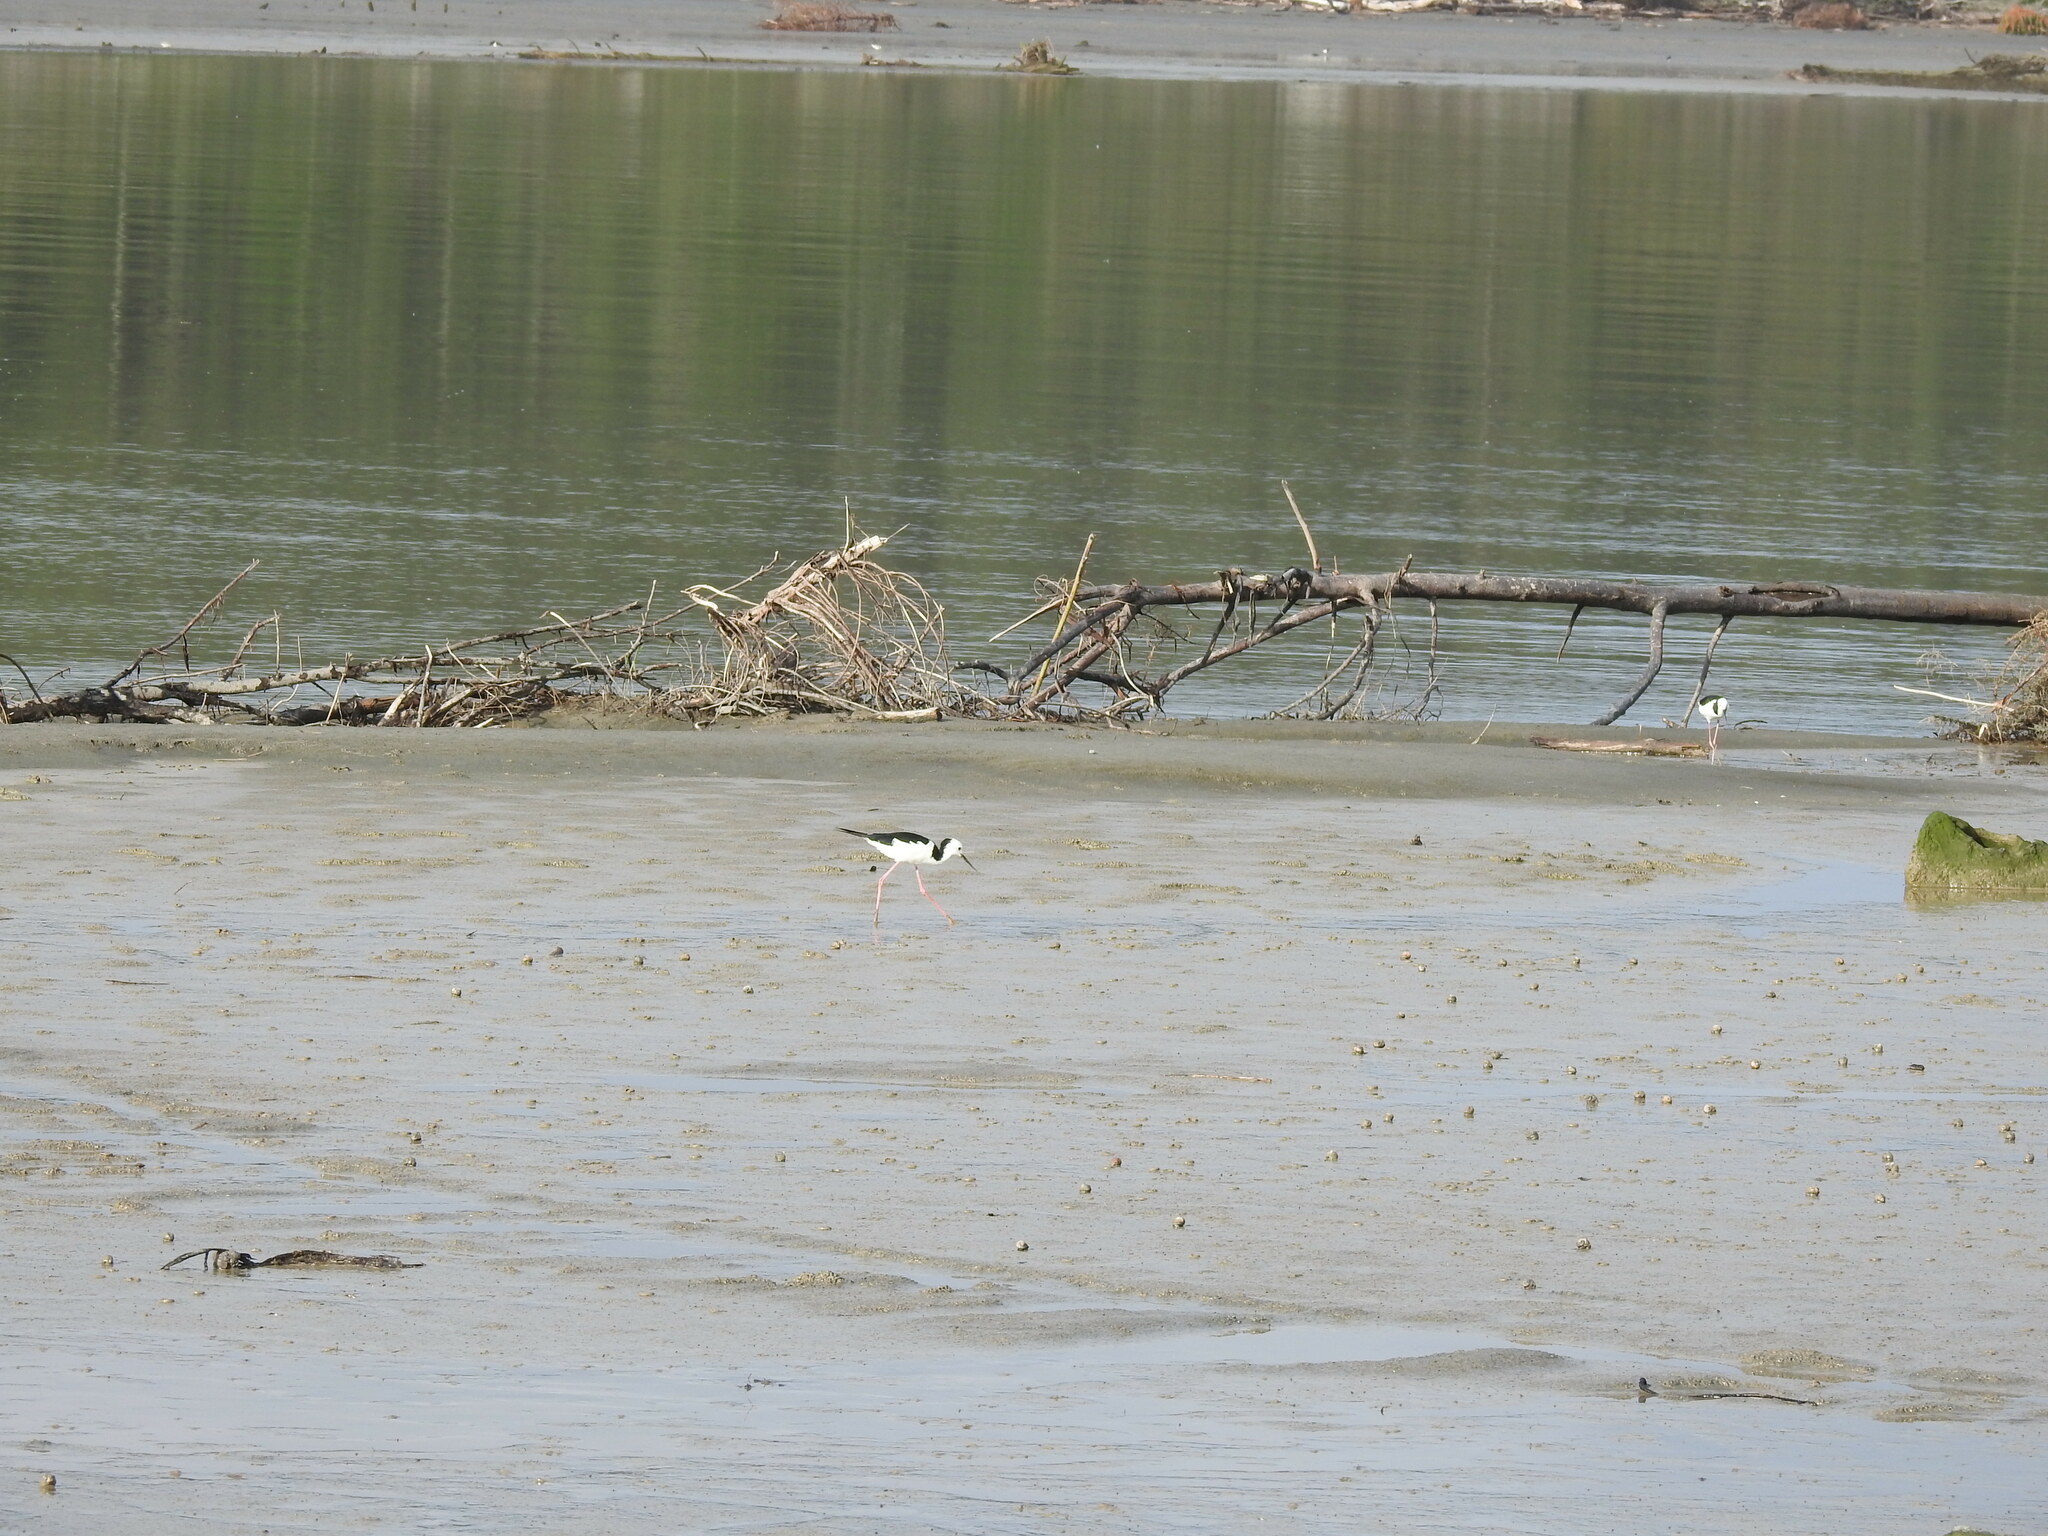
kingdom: Animalia
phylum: Chordata
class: Aves
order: Charadriiformes
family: Recurvirostridae
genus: Himantopus
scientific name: Himantopus leucocephalus
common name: White-headed stilt
